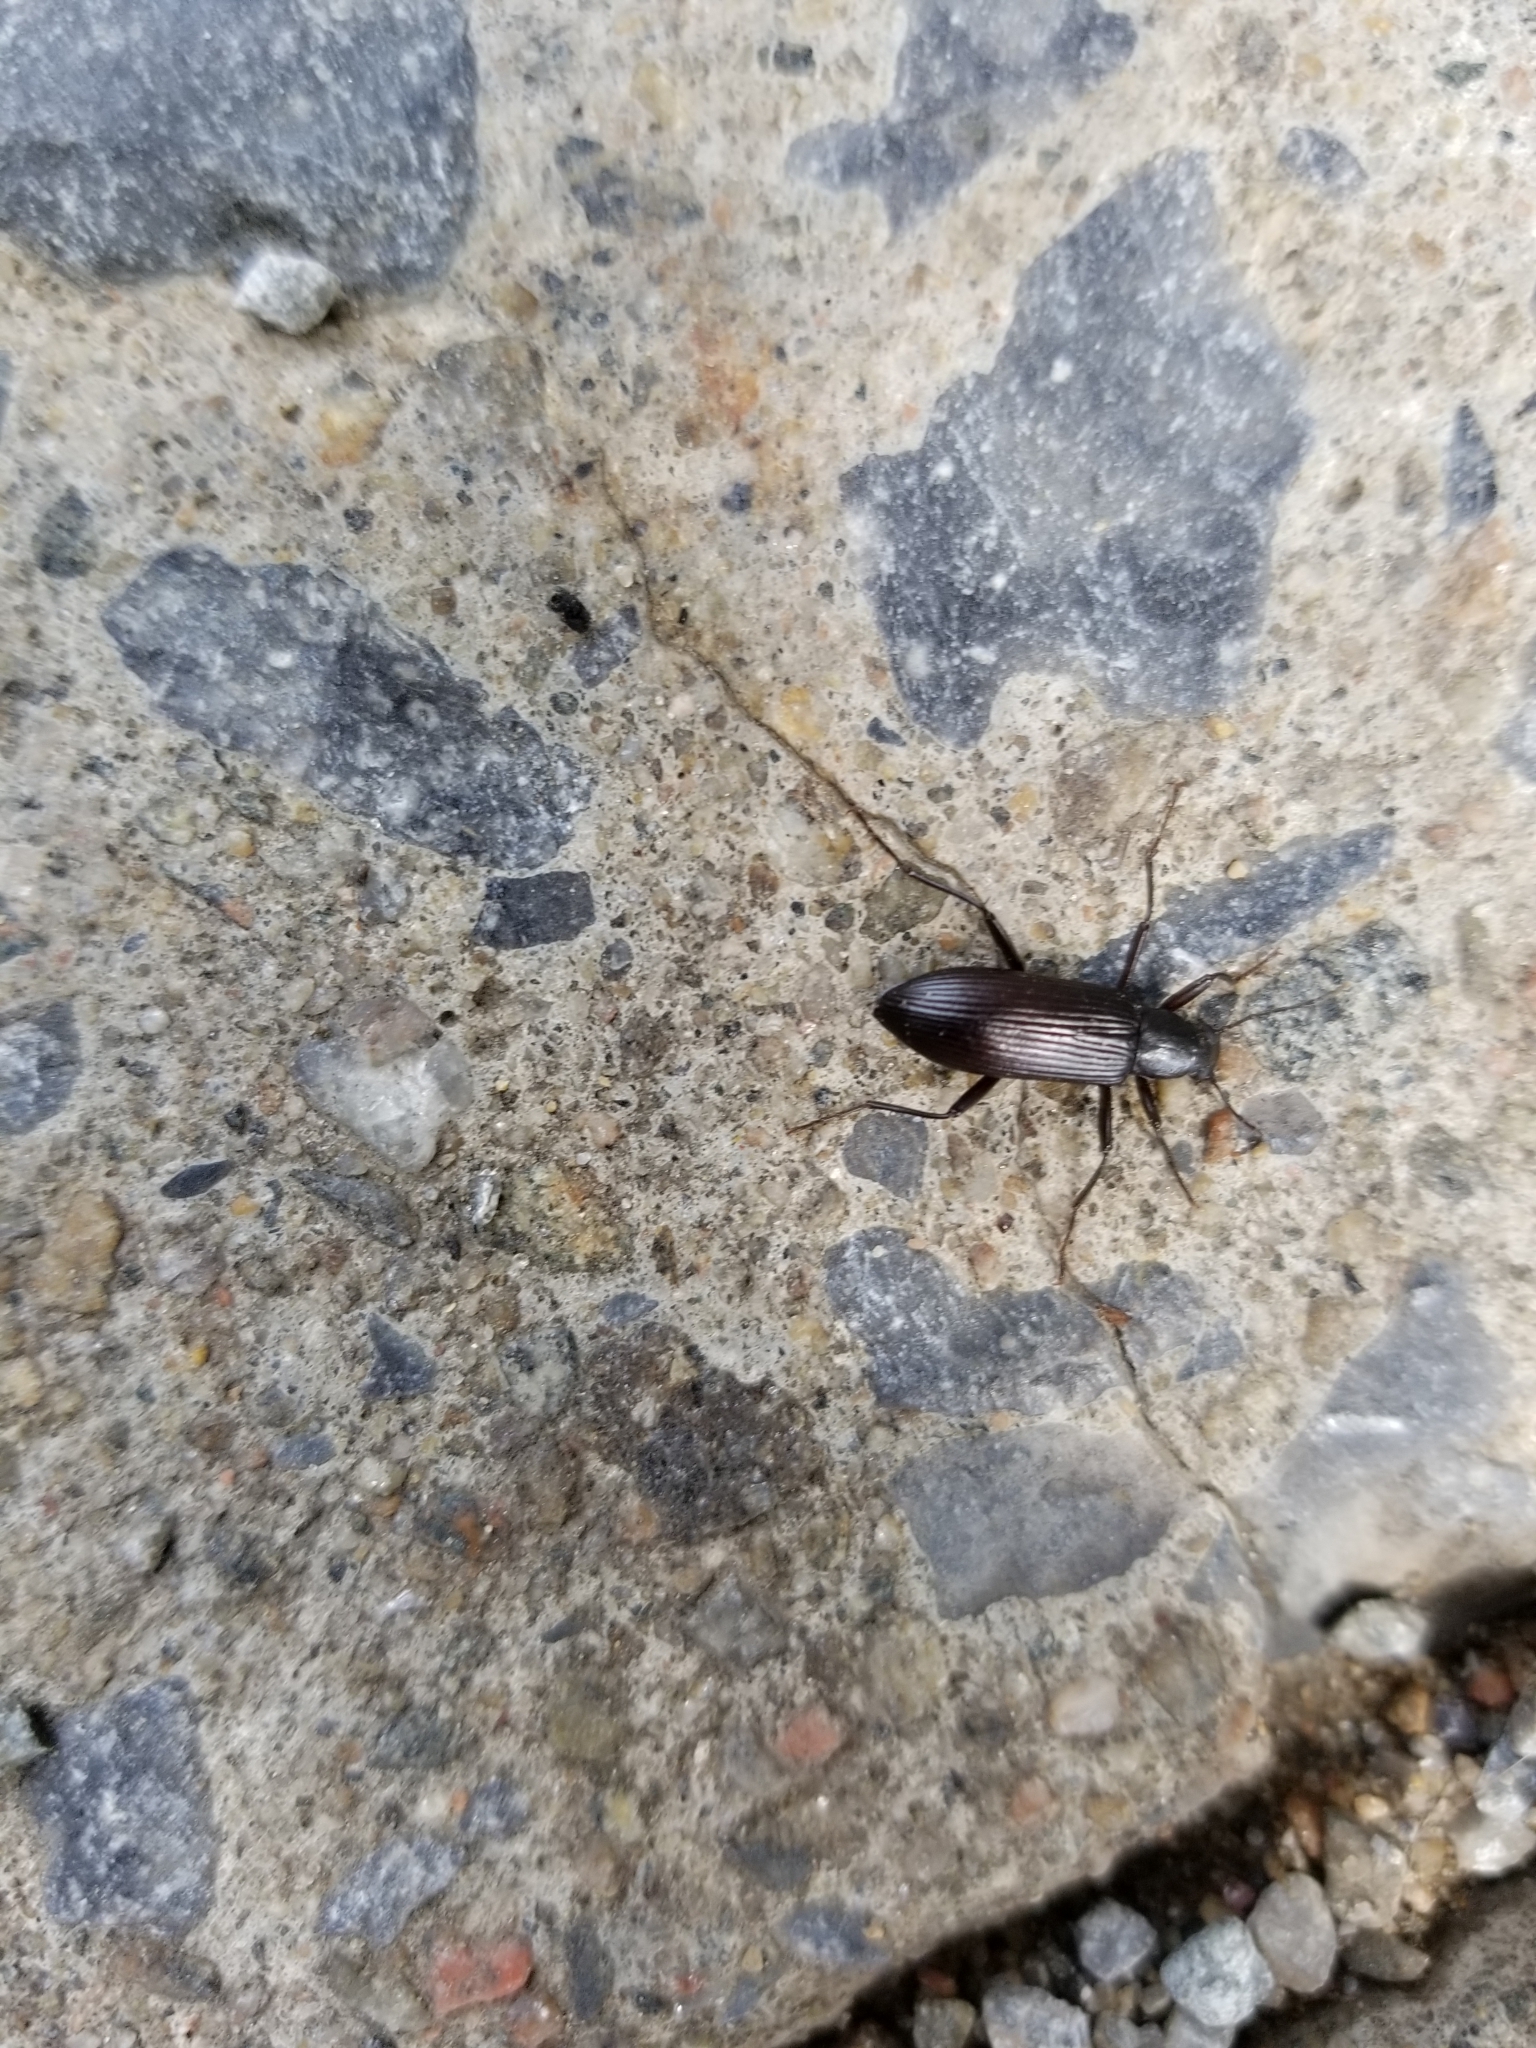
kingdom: Animalia
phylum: Arthropoda
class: Insecta
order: Coleoptera
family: Tenebrionidae
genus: Strongylium
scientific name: Strongylium tenuicolle
